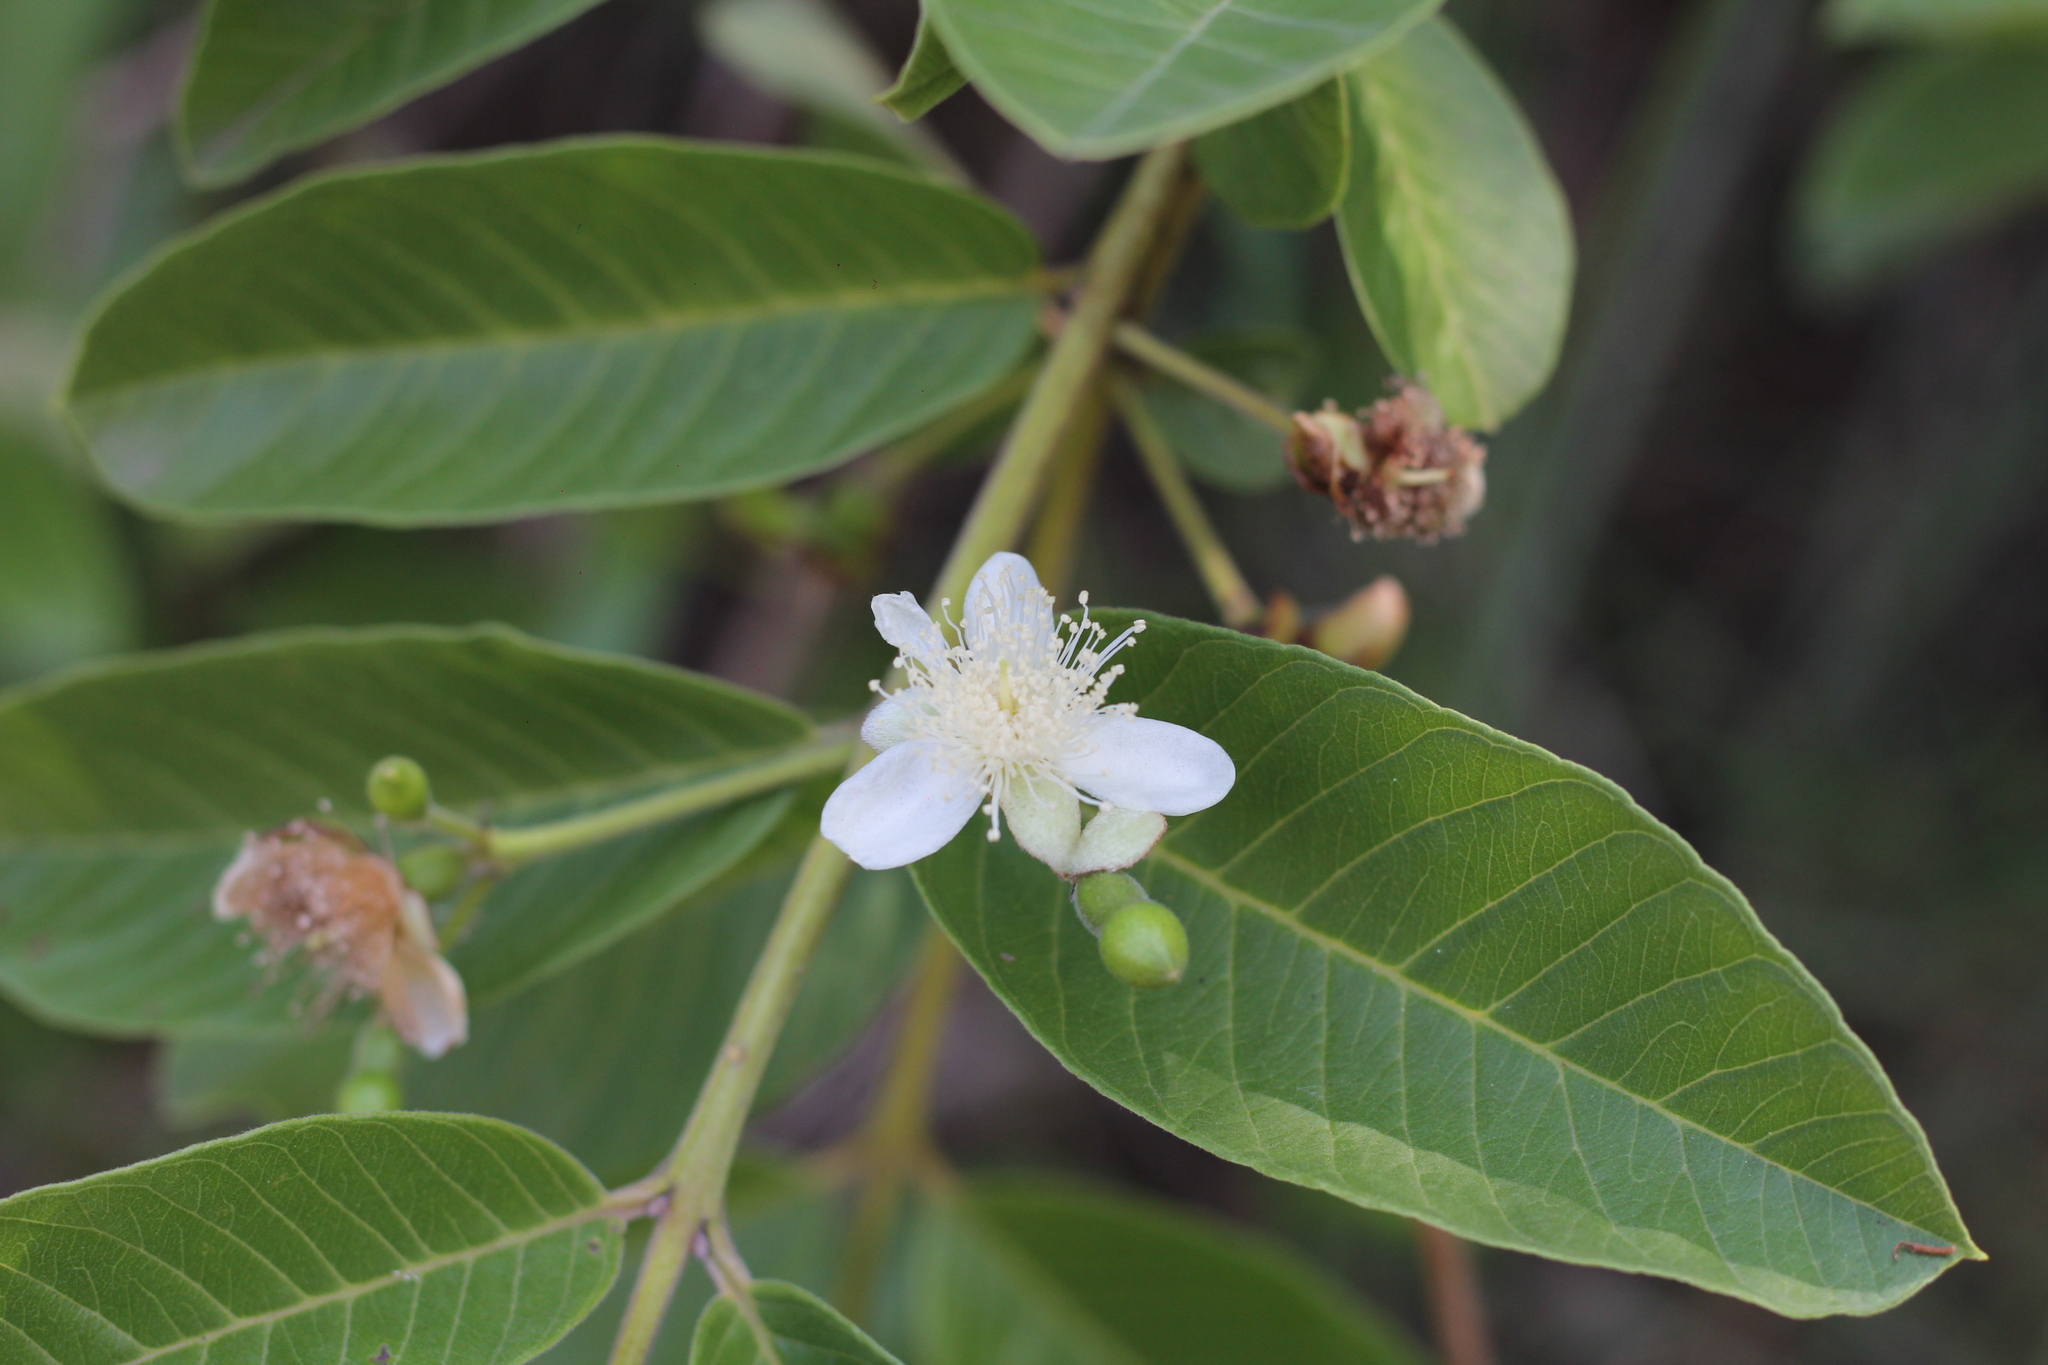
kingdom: Plantae
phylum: Tracheophyta
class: Magnoliopsida
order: Myrtales
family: Myrtaceae
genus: Psidium
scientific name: Psidium guajava
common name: Guava
